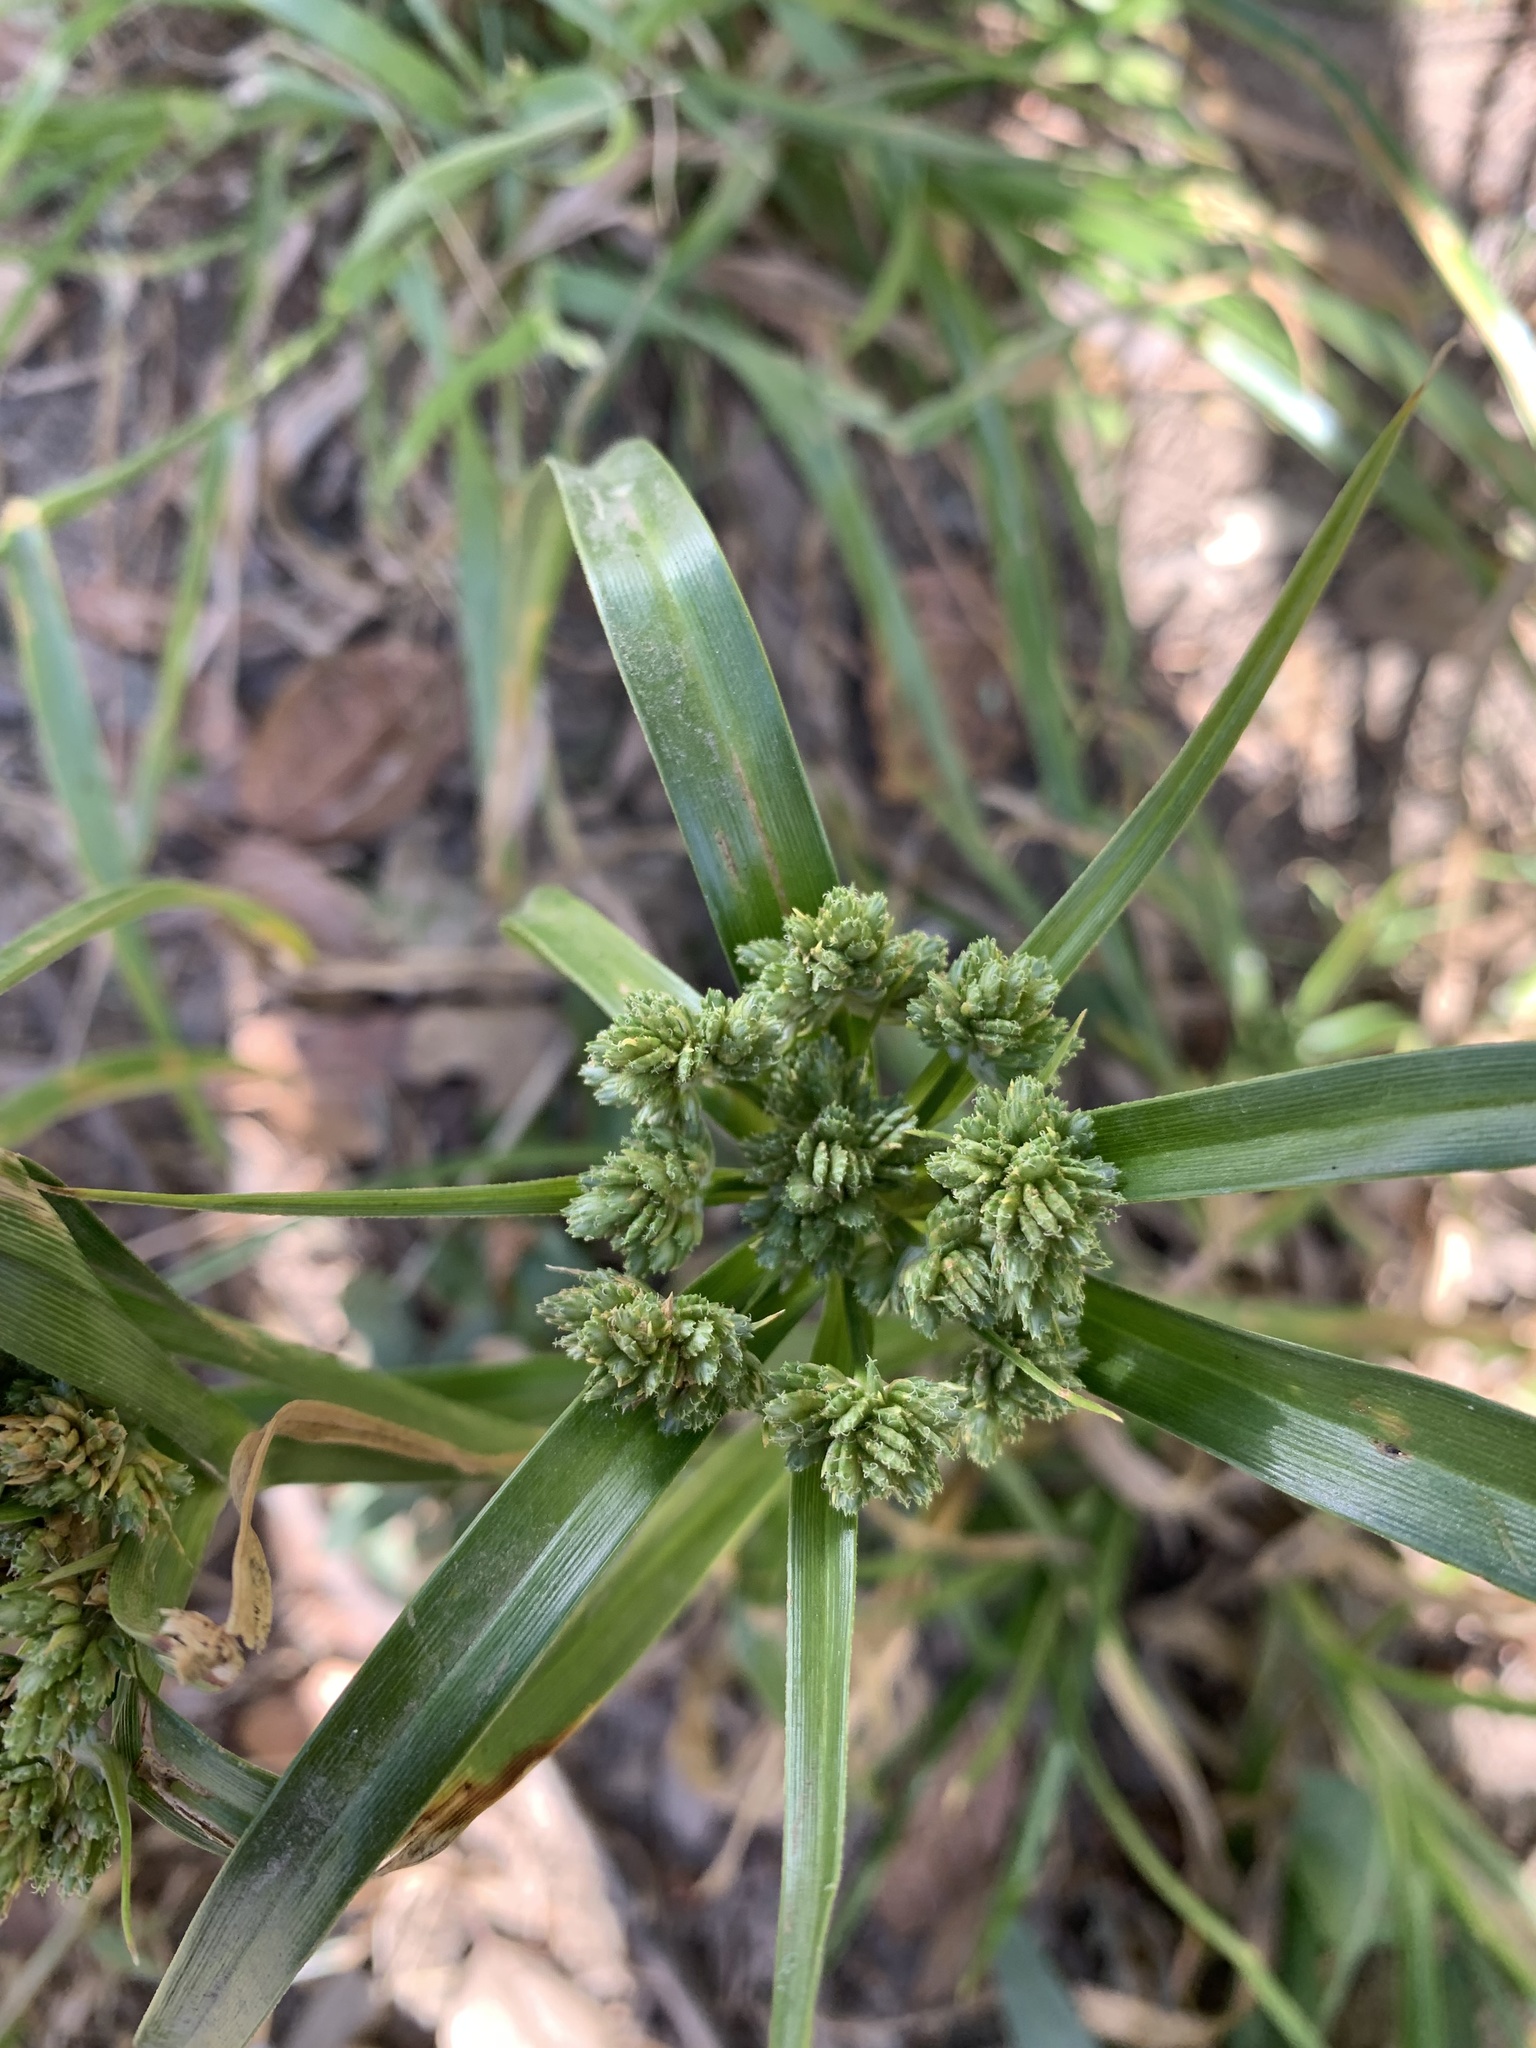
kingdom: Plantae
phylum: Tracheophyta
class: Liliopsida
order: Poales
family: Cyperaceae
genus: Cyperus
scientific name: Cyperus eragrostis
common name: Tall flatsedge
